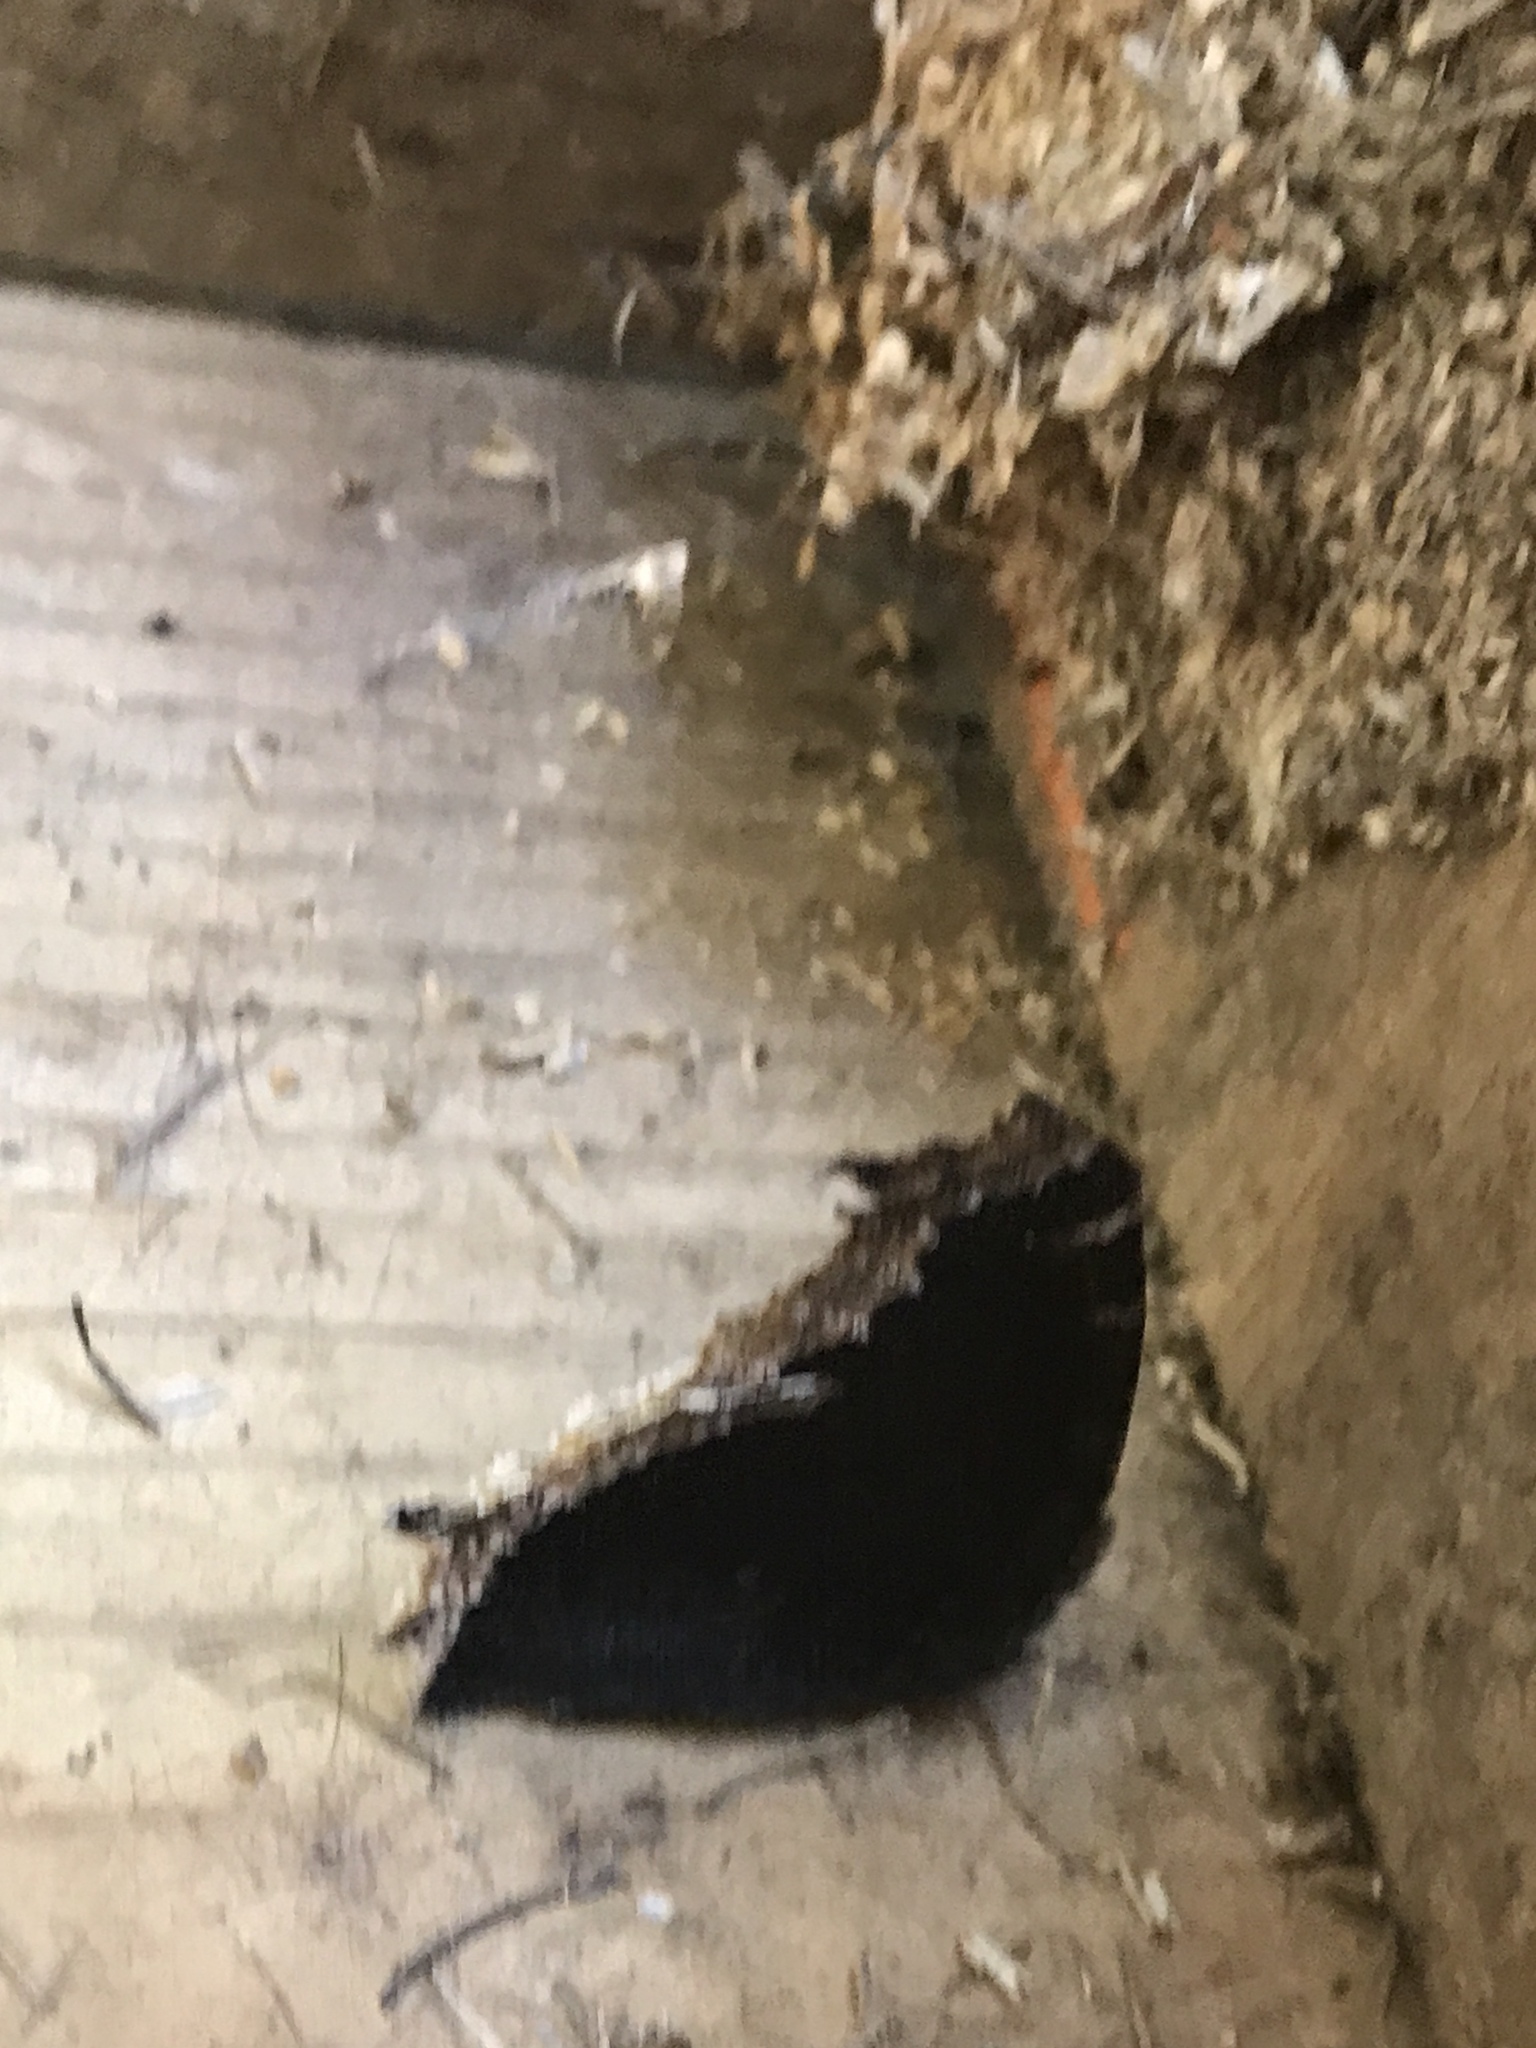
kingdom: Animalia
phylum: Arthropoda
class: Insecta
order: Lepidoptera
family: Nymphalidae
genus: Nymphalis
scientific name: Nymphalis antiopa
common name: Camberwell beauty
